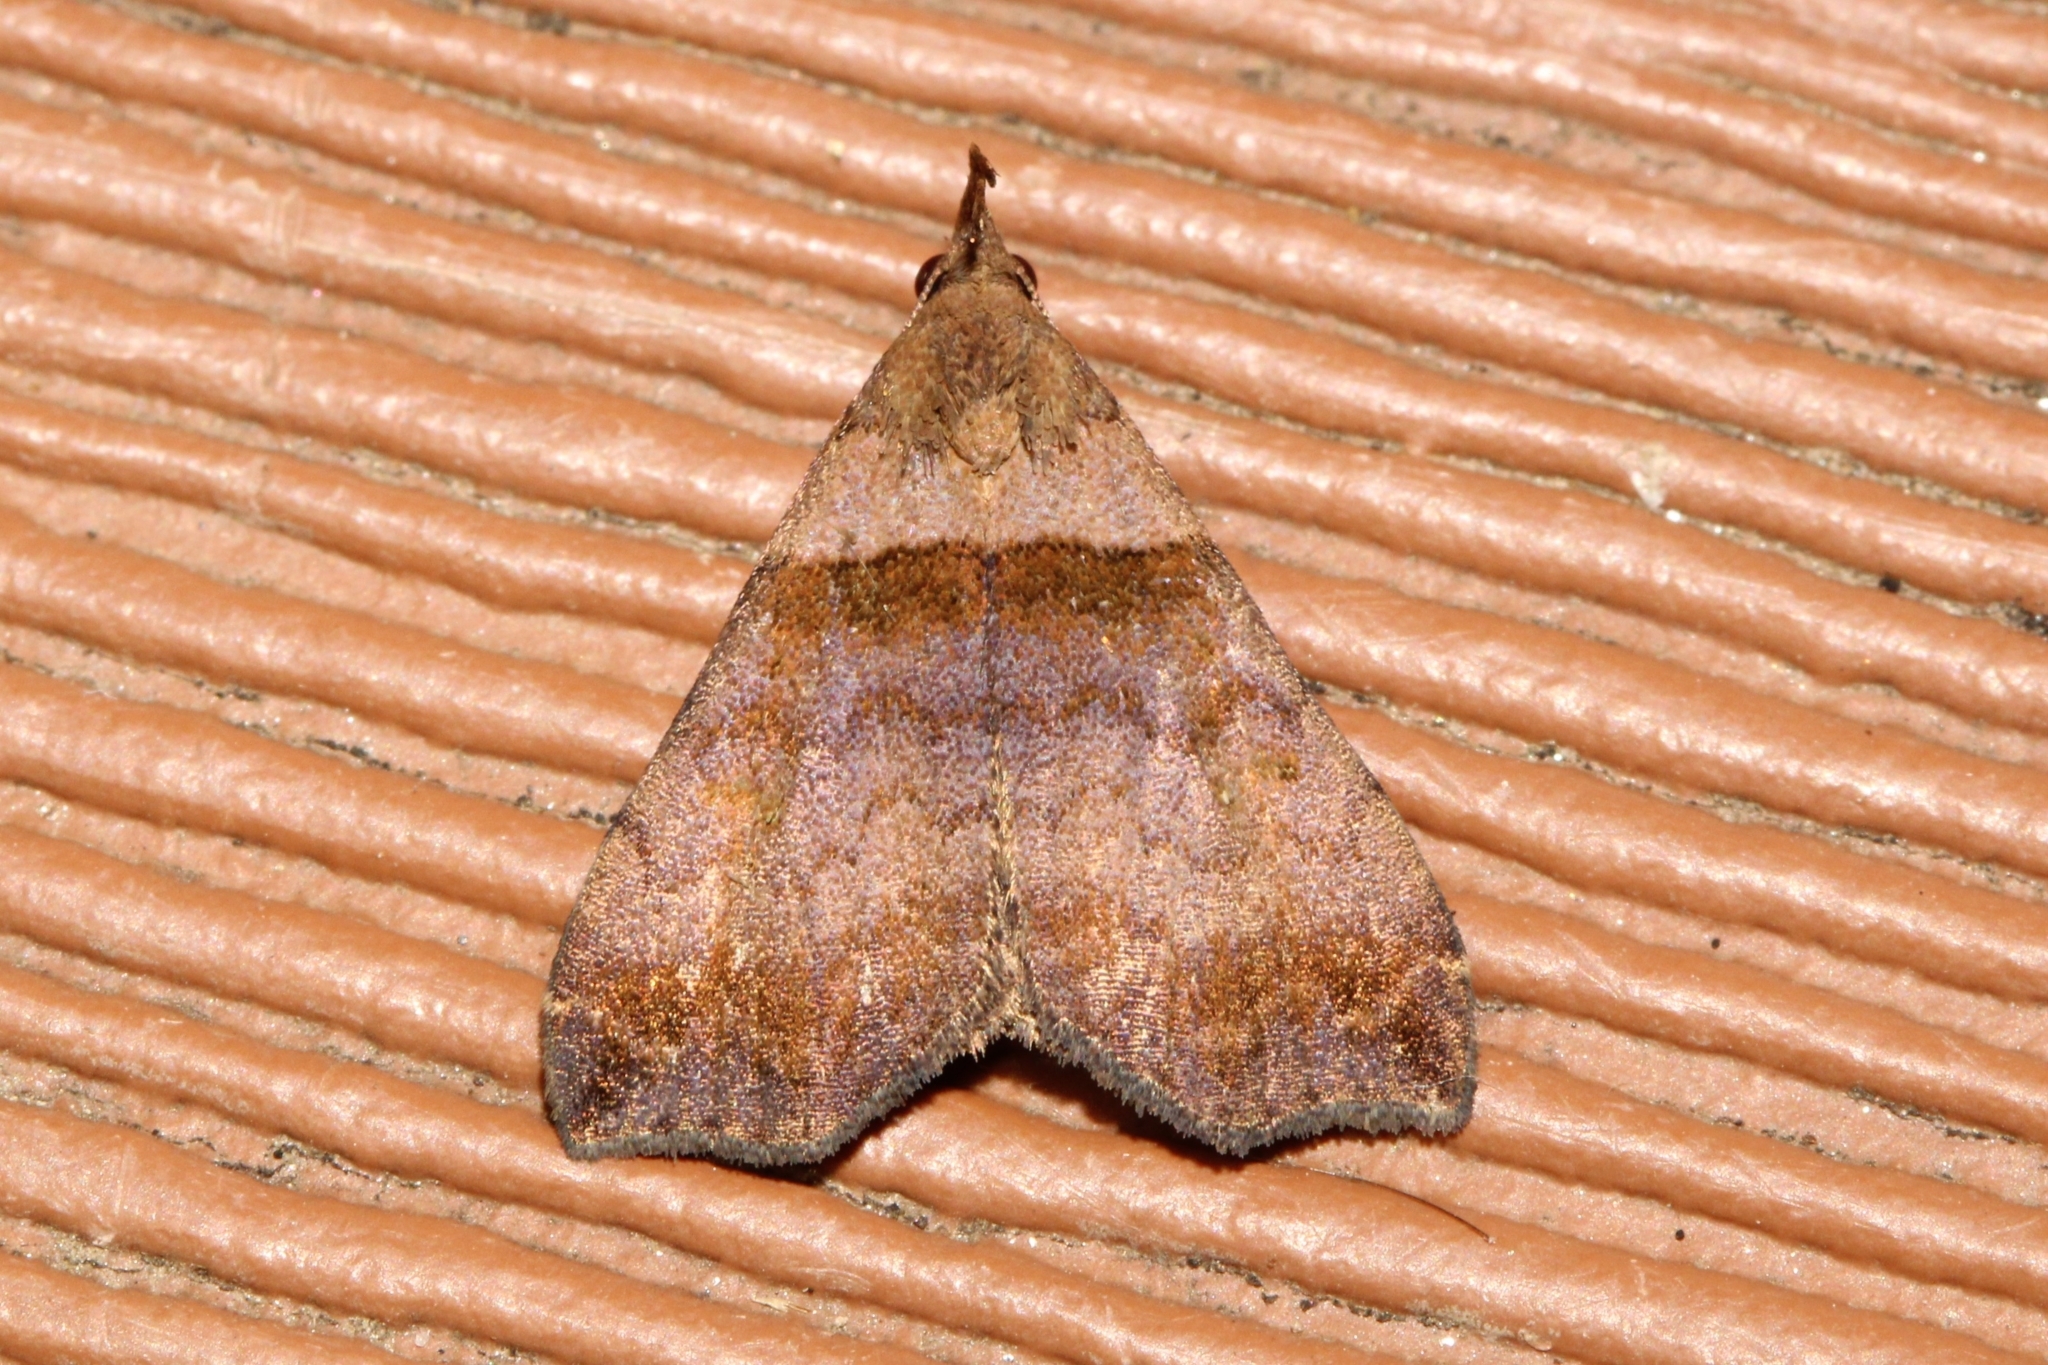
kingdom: Animalia
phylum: Arthropoda
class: Insecta
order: Lepidoptera
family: Erebidae
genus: Lascoria
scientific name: Lascoria ambigualis
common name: Ambiguous moth
